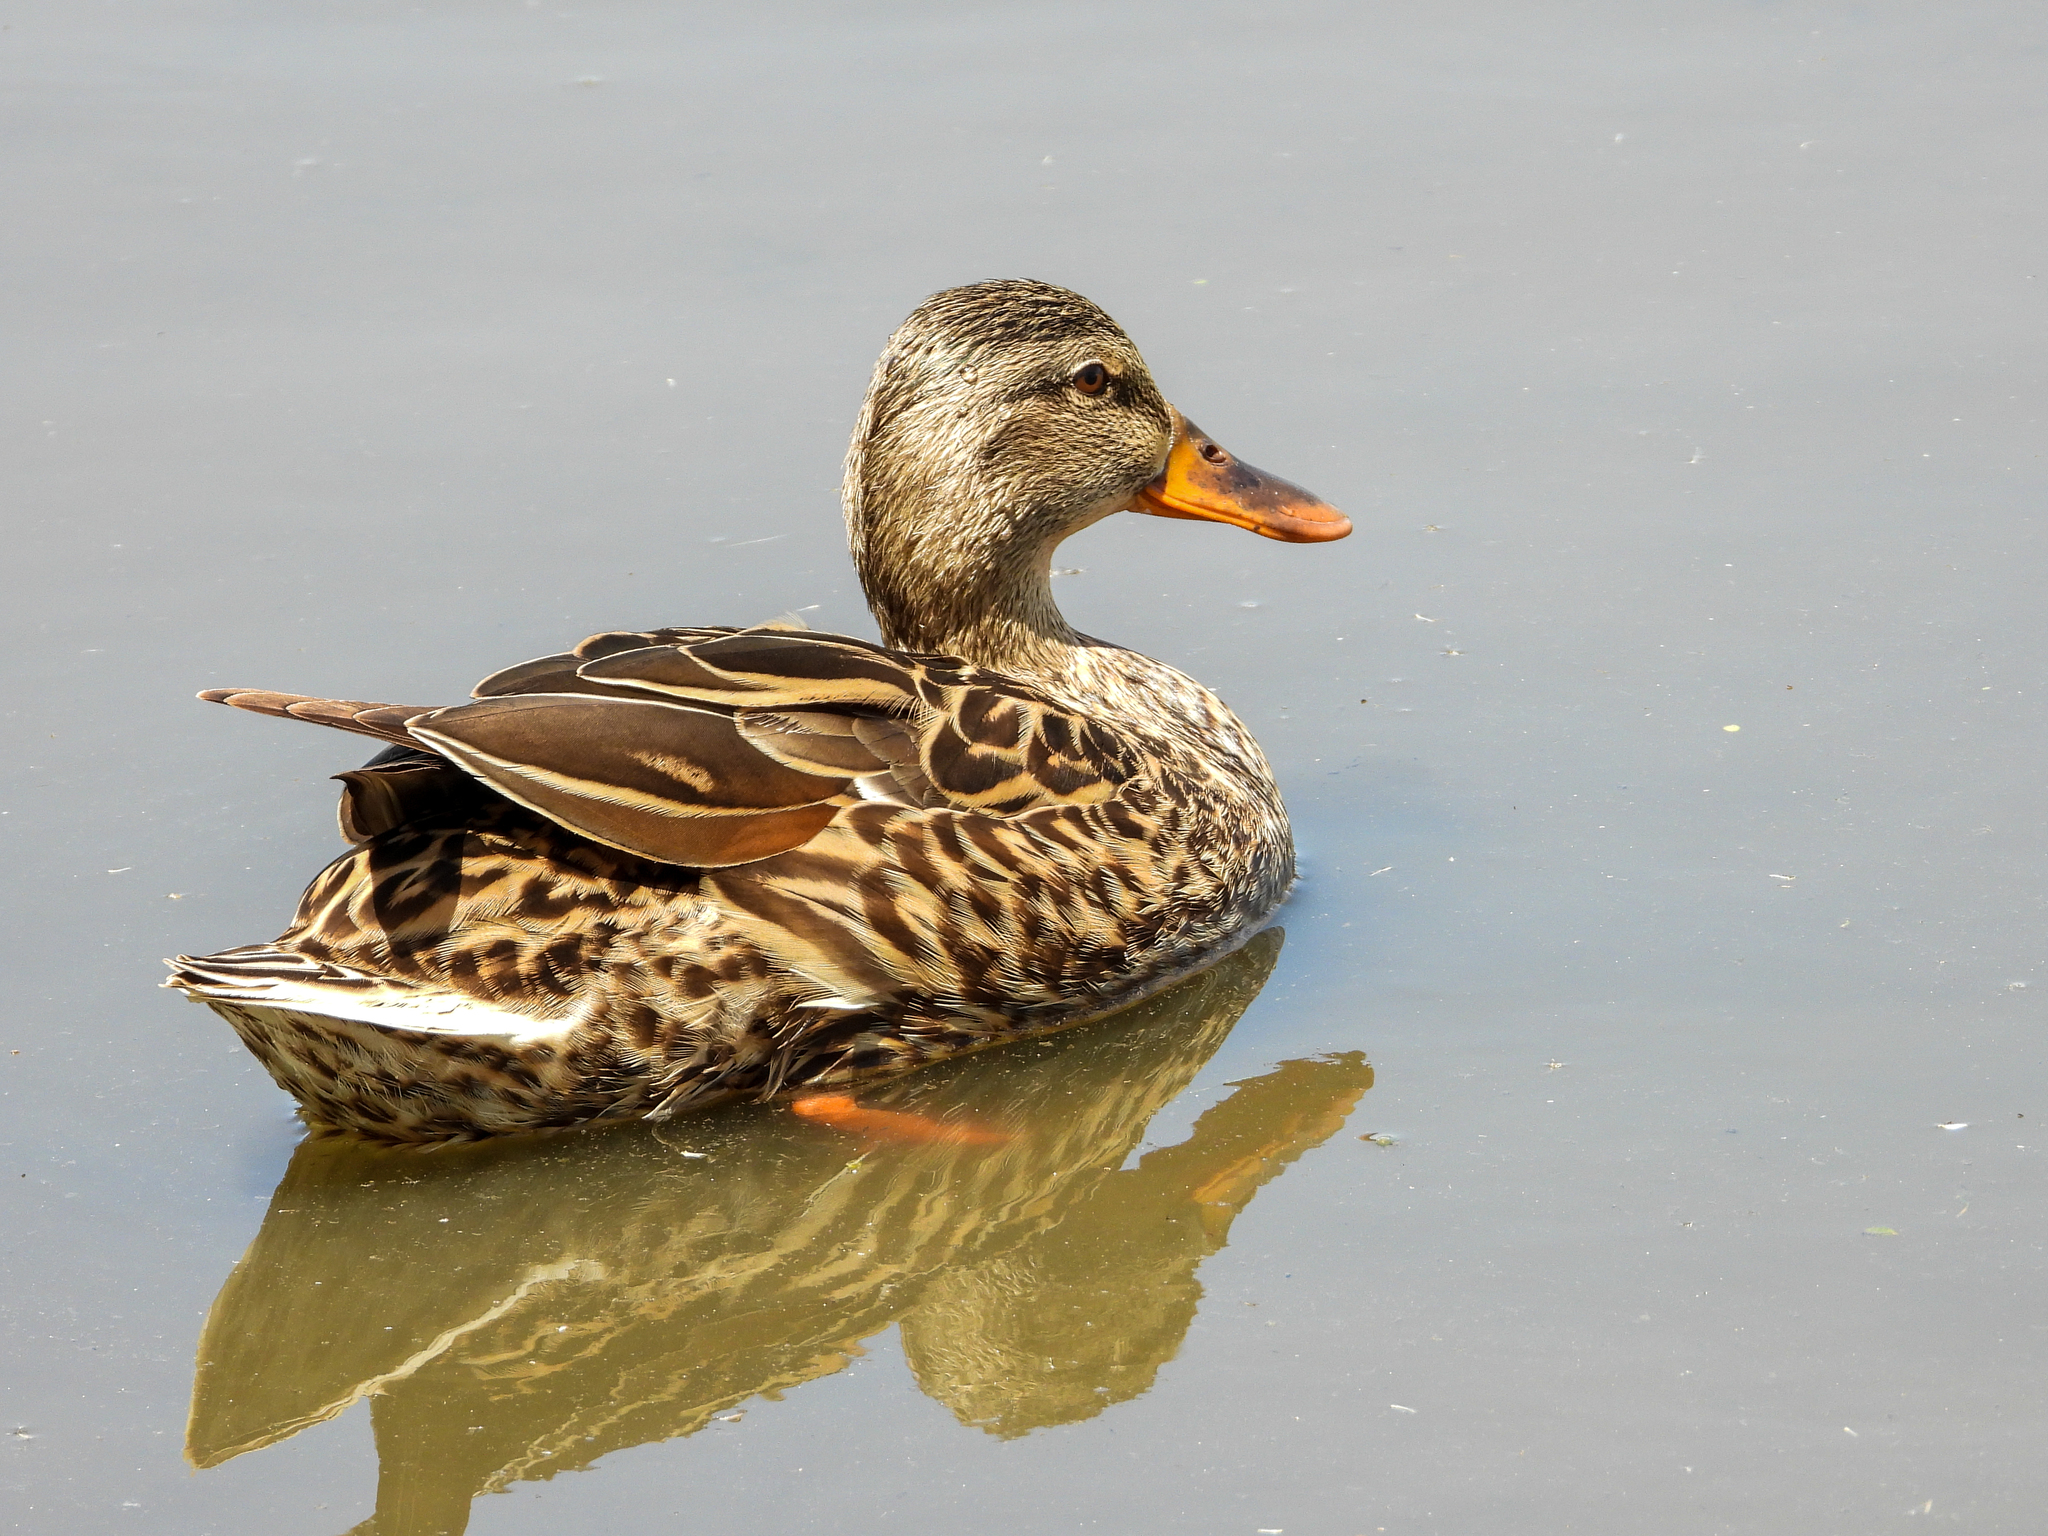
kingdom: Animalia
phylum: Chordata
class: Aves
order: Anseriformes
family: Anatidae
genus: Anas
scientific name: Anas platyrhynchos
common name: Mallard
